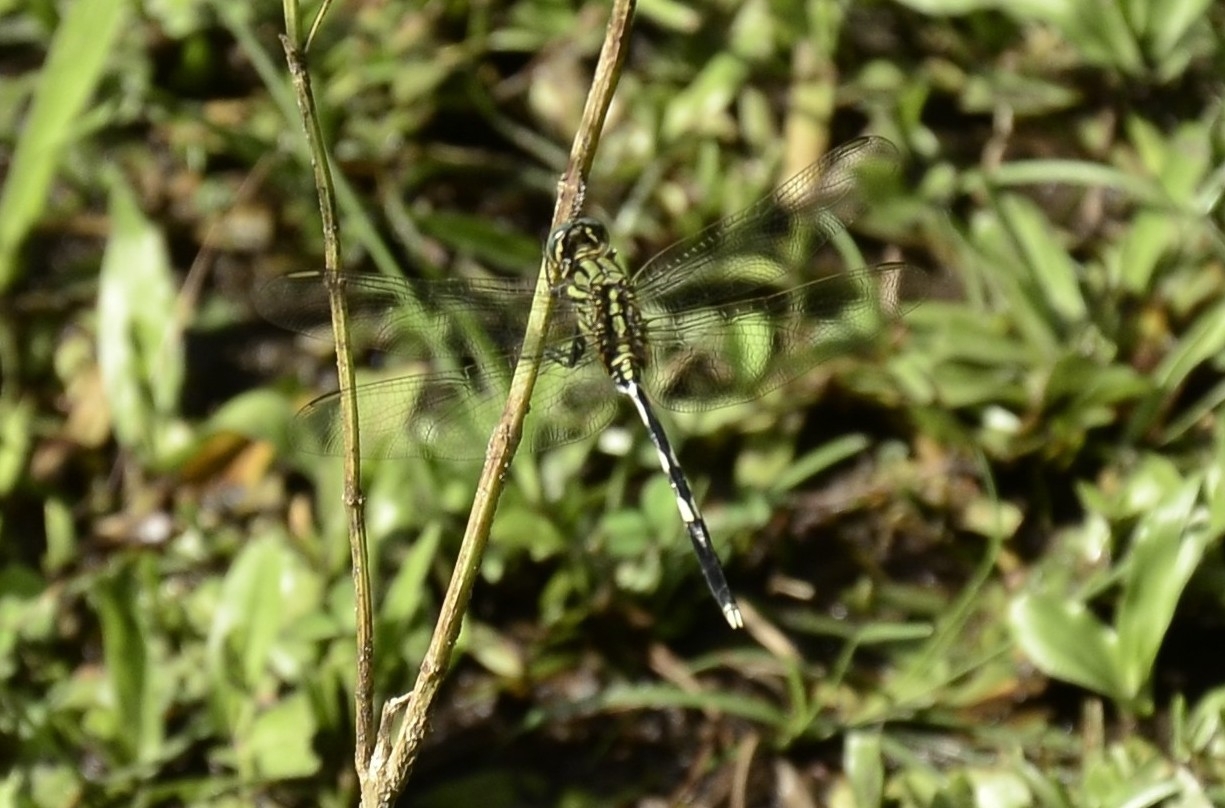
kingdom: Animalia
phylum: Arthropoda
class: Insecta
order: Odonata
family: Libellulidae
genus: Orthetrum
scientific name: Orthetrum sabina
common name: Slender skimmer
